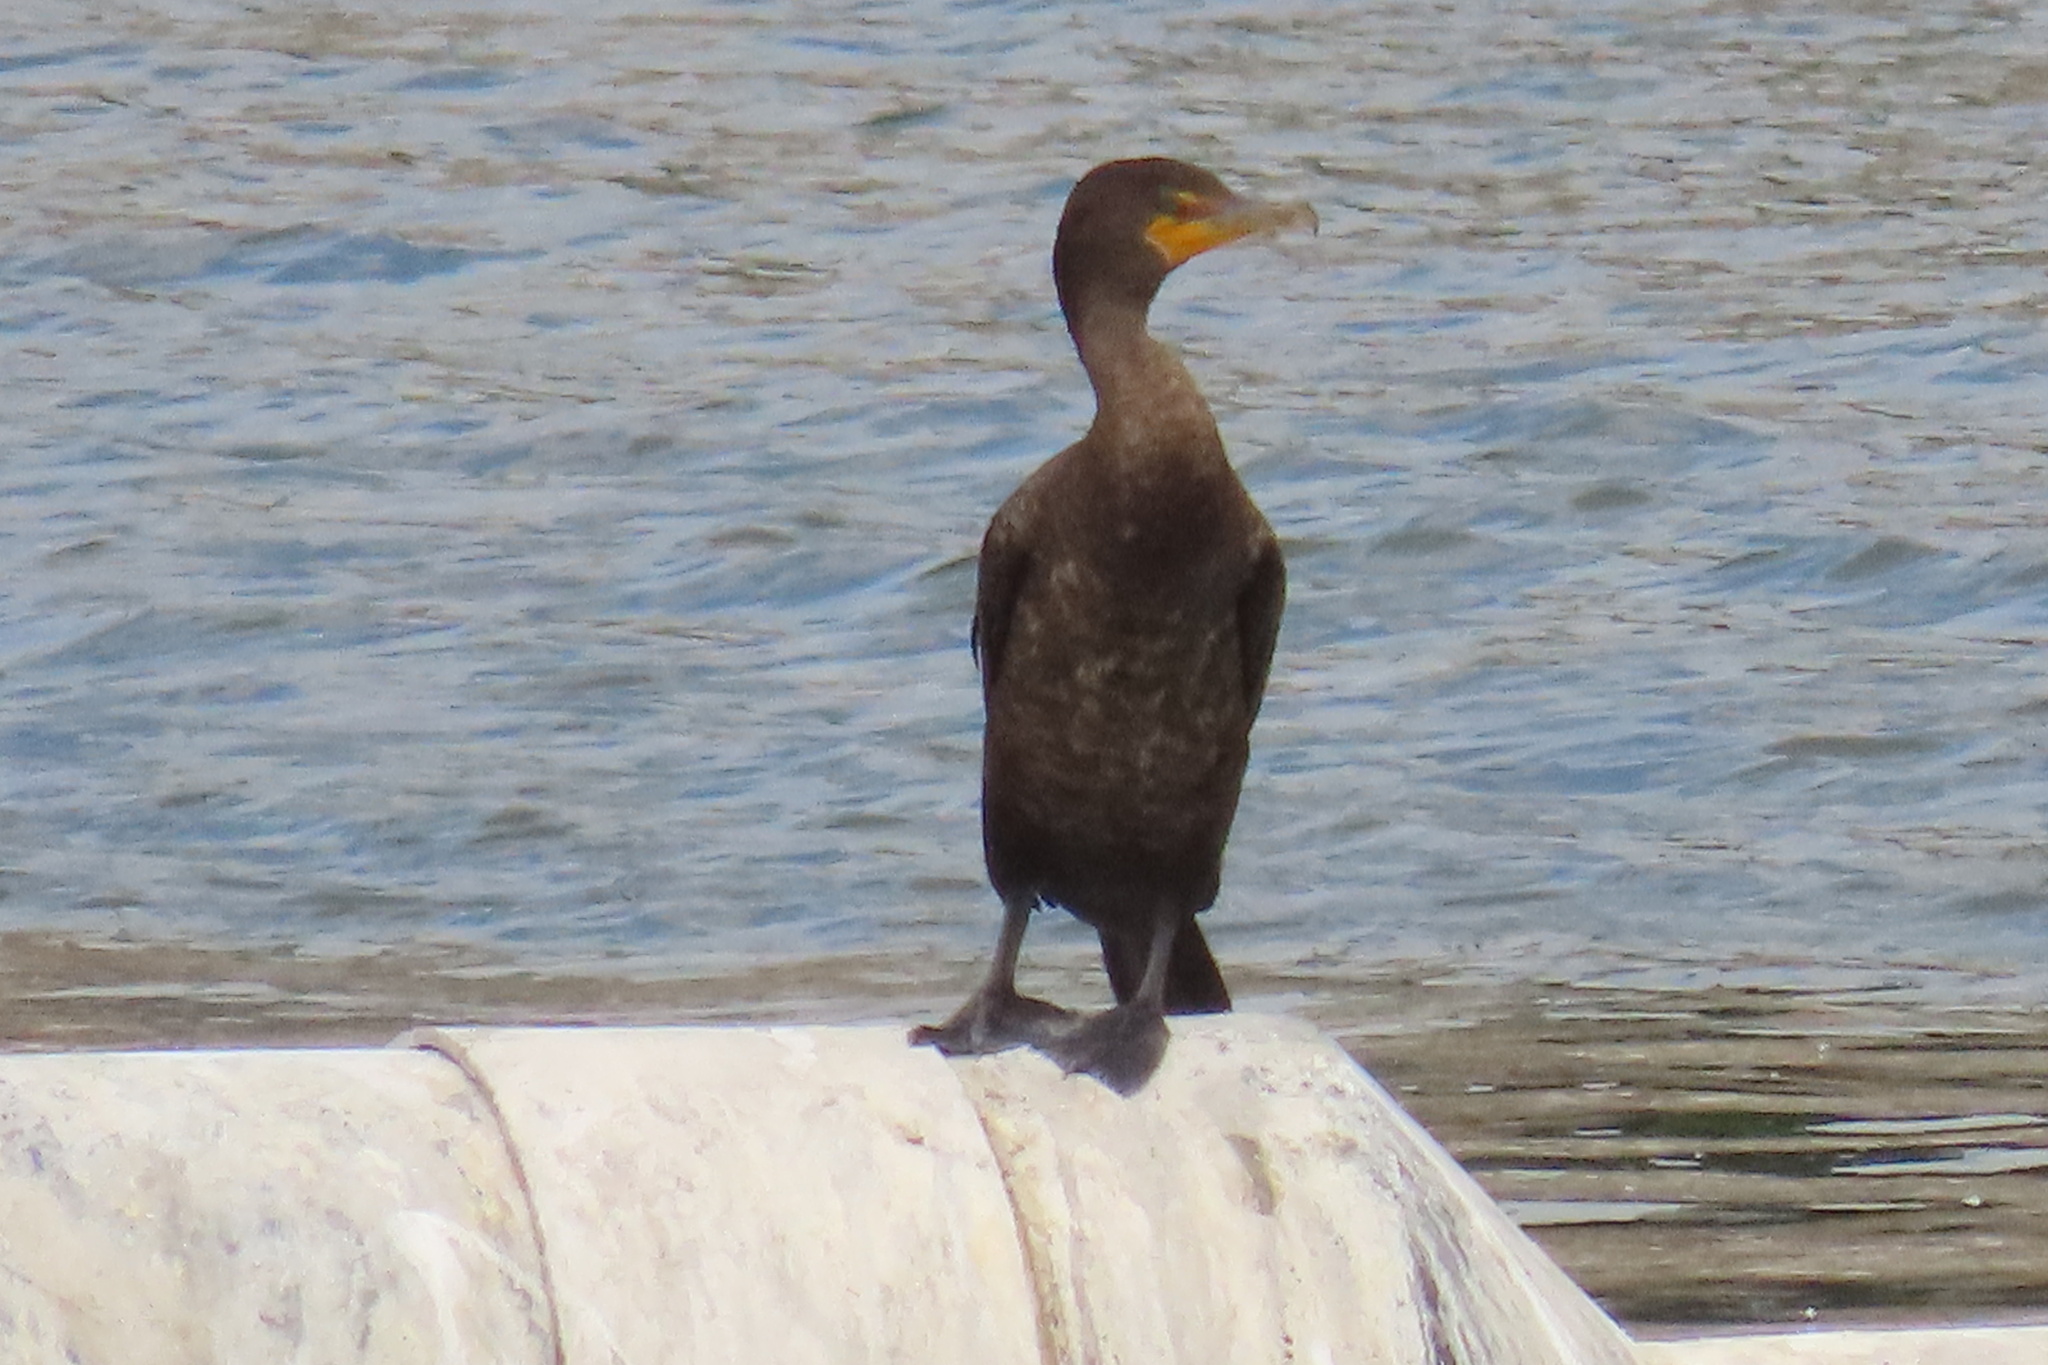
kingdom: Animalia
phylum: Chordata
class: Aves
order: Suliformes
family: Phalacrocoracidae
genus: Phalacrocorax
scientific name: Phalacrocorax auritus
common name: Double-crested cormorant
